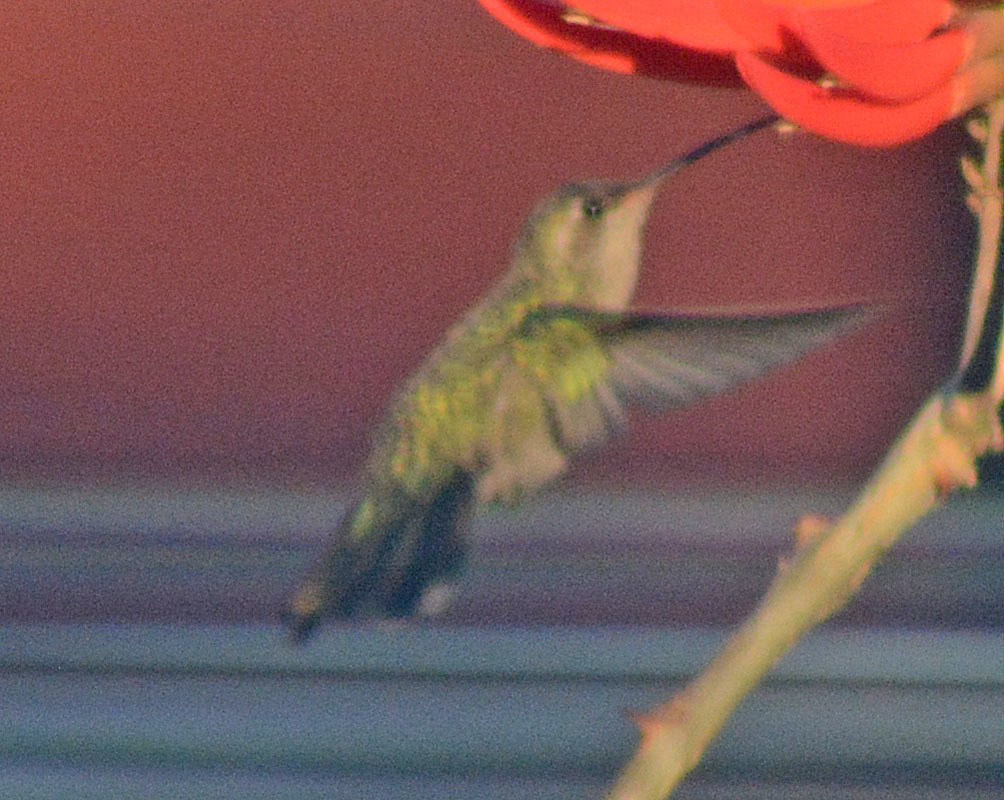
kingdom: Animalia
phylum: Chordata
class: Aves
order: Apodiformes
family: Trochilidae
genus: Cynanthus
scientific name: Cynanthus latirostris
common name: Broad-billed hummingbird
